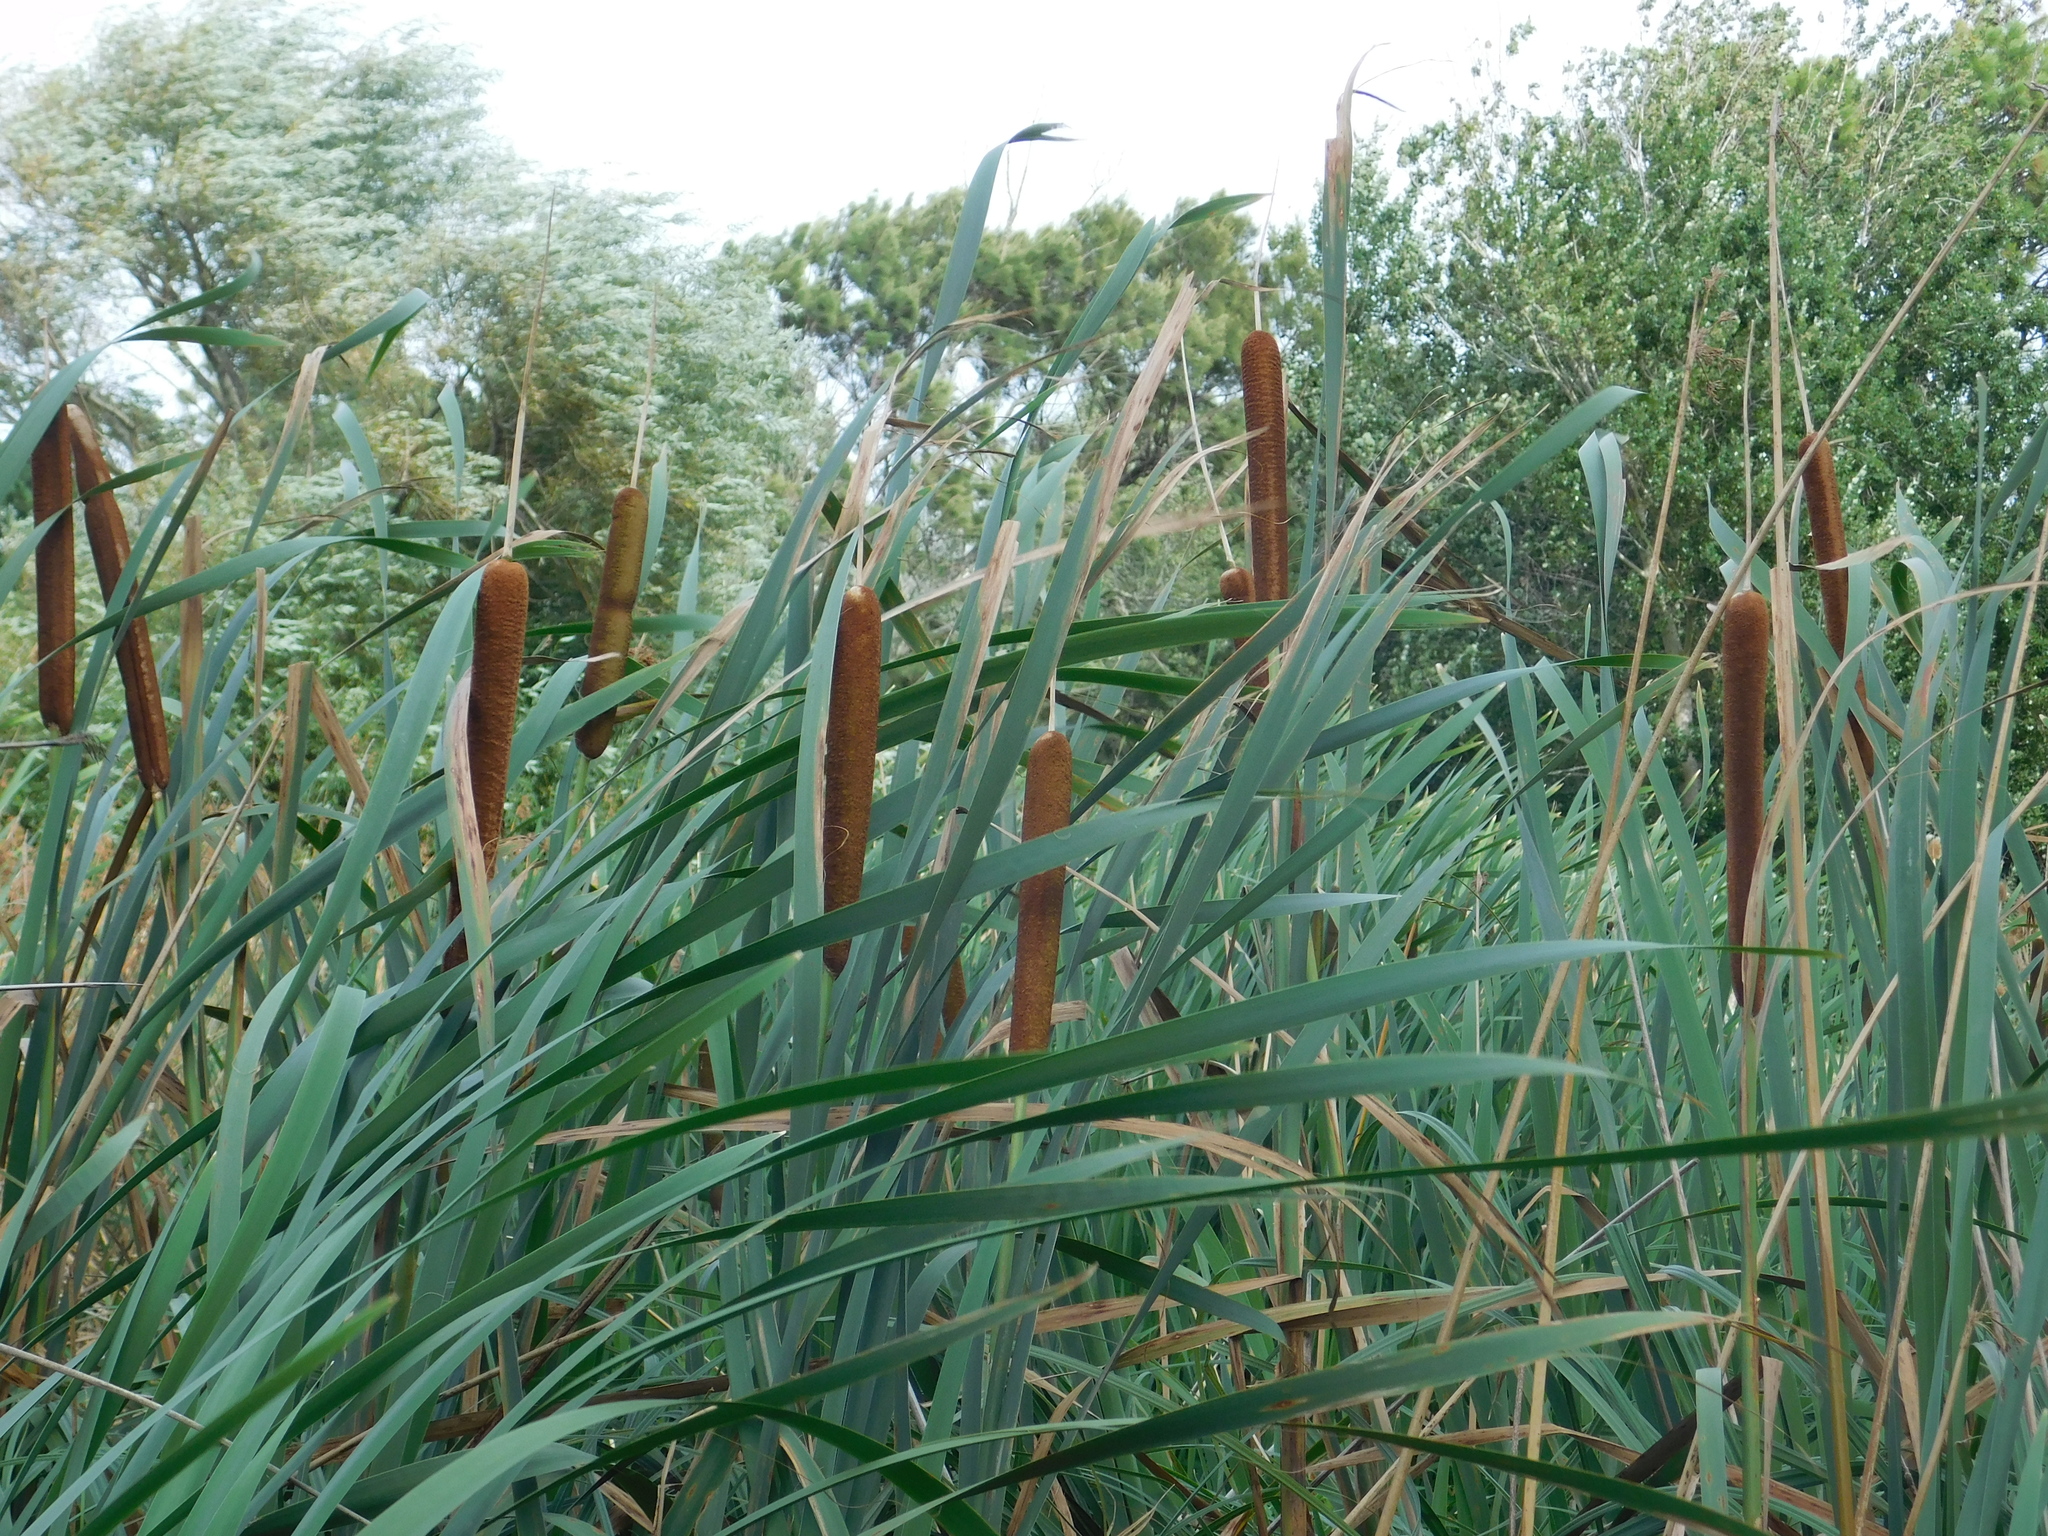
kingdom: Plantae
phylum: Tracheophyta
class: Liliopsida
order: Poales
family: Typhaceae
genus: Typha
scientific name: Typha latifolia
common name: Broadleaf cattail
